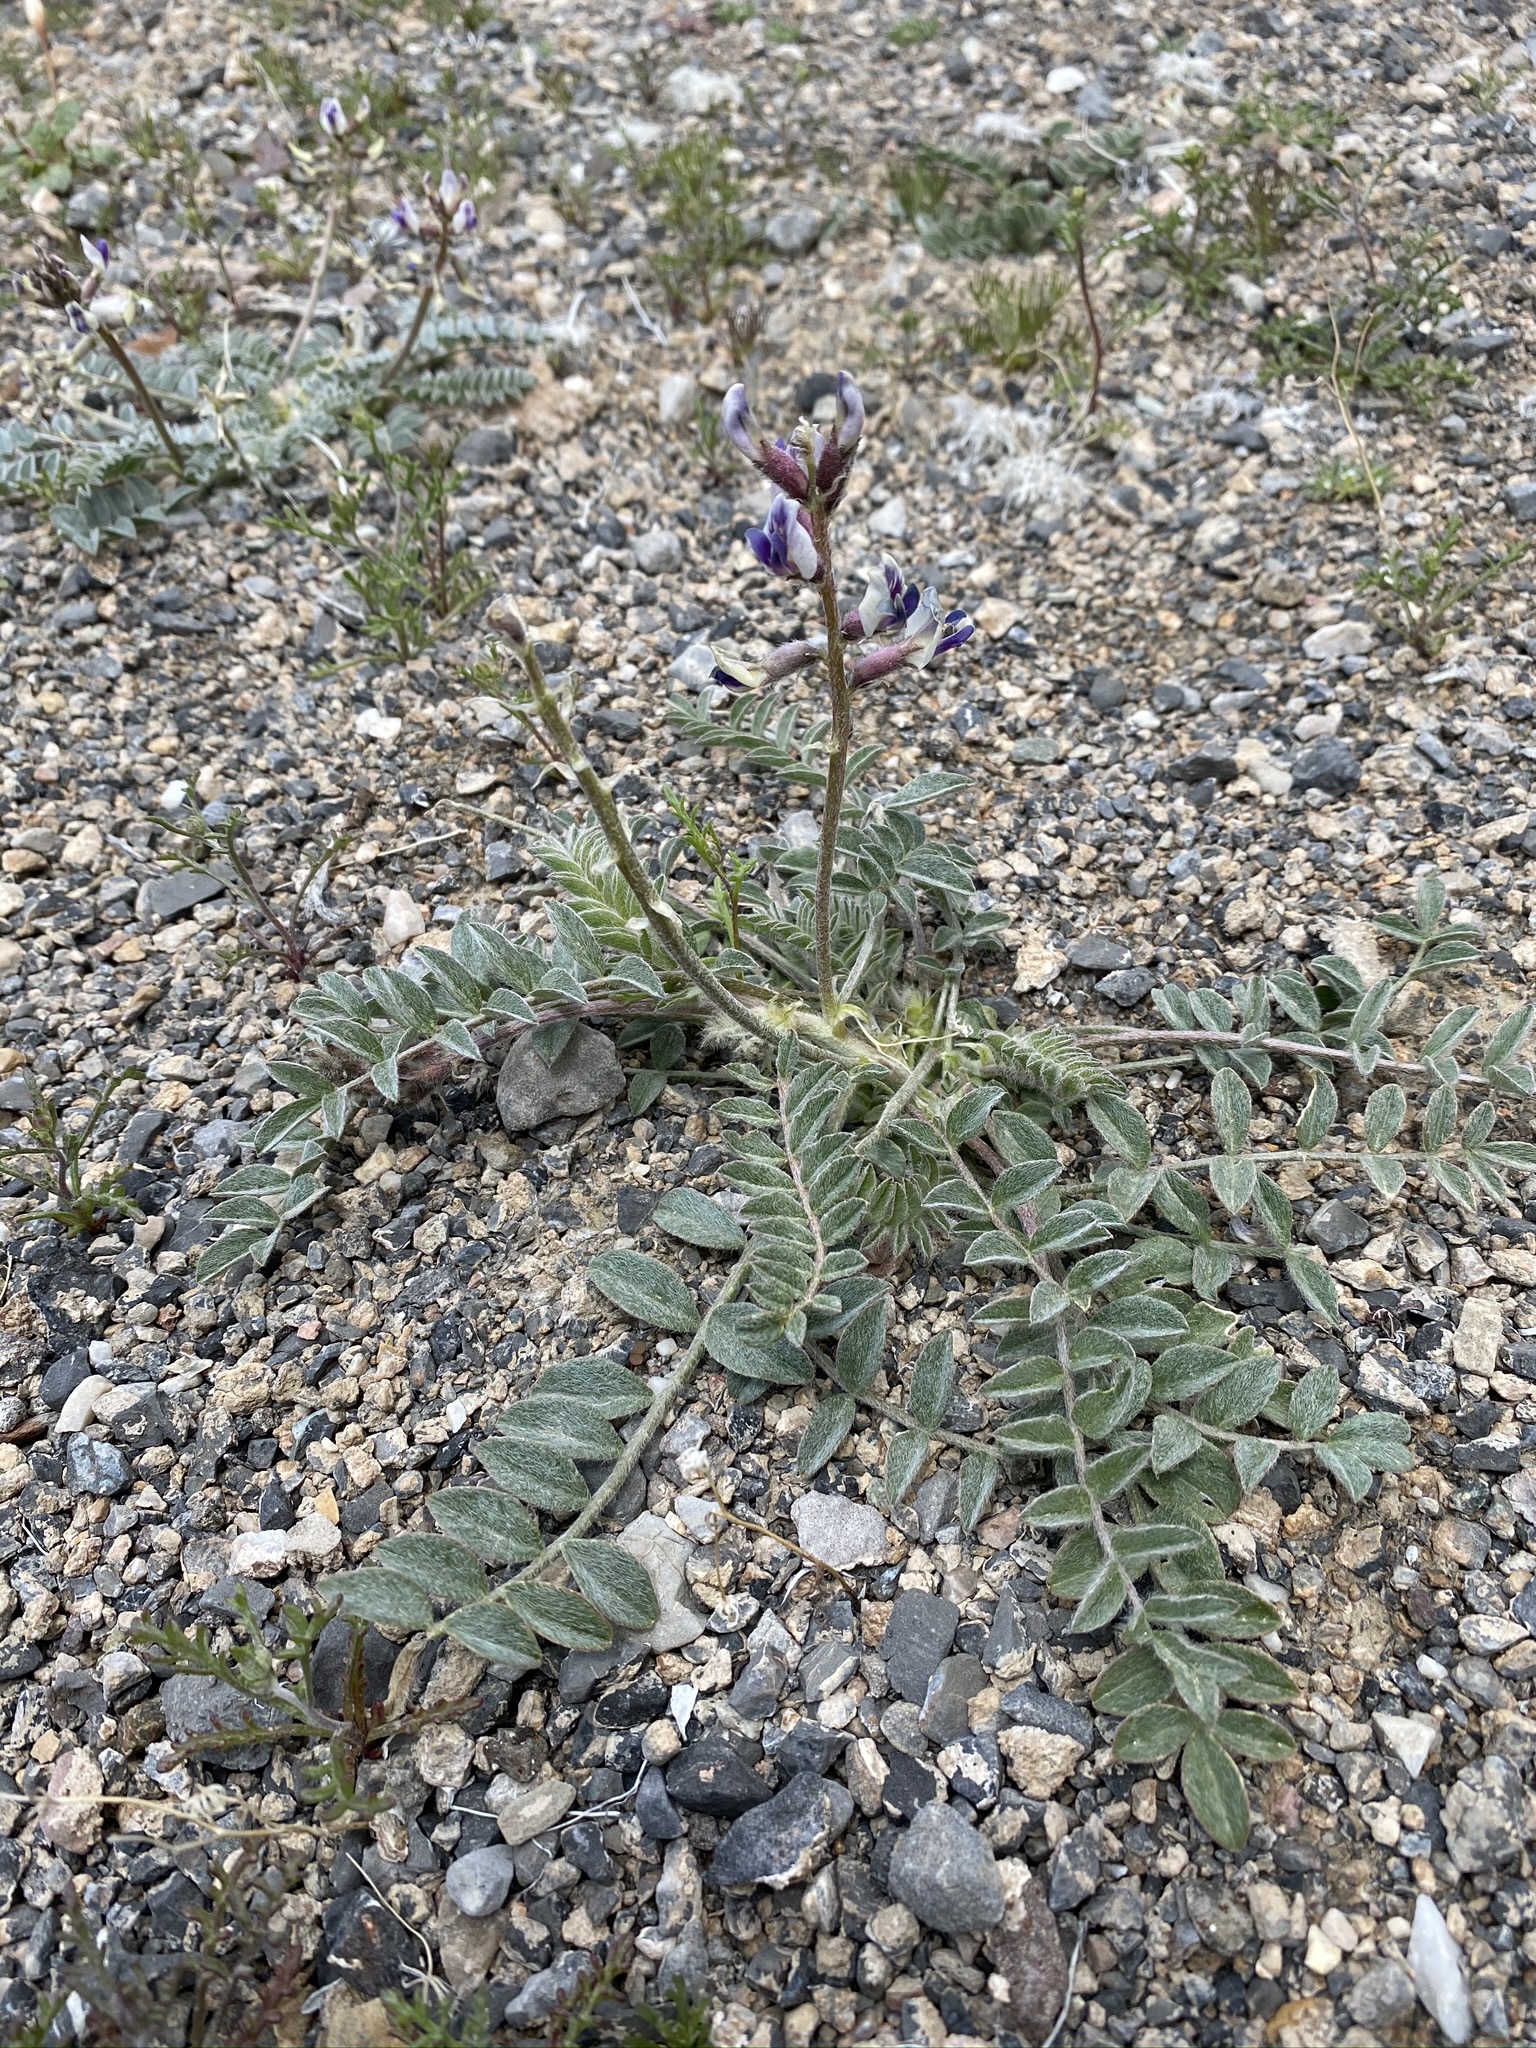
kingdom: Plantae
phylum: Tracheophyta
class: Magnoliopsida
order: Fabales
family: Fabaceae
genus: Astragalus
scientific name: Astragalus layneae
